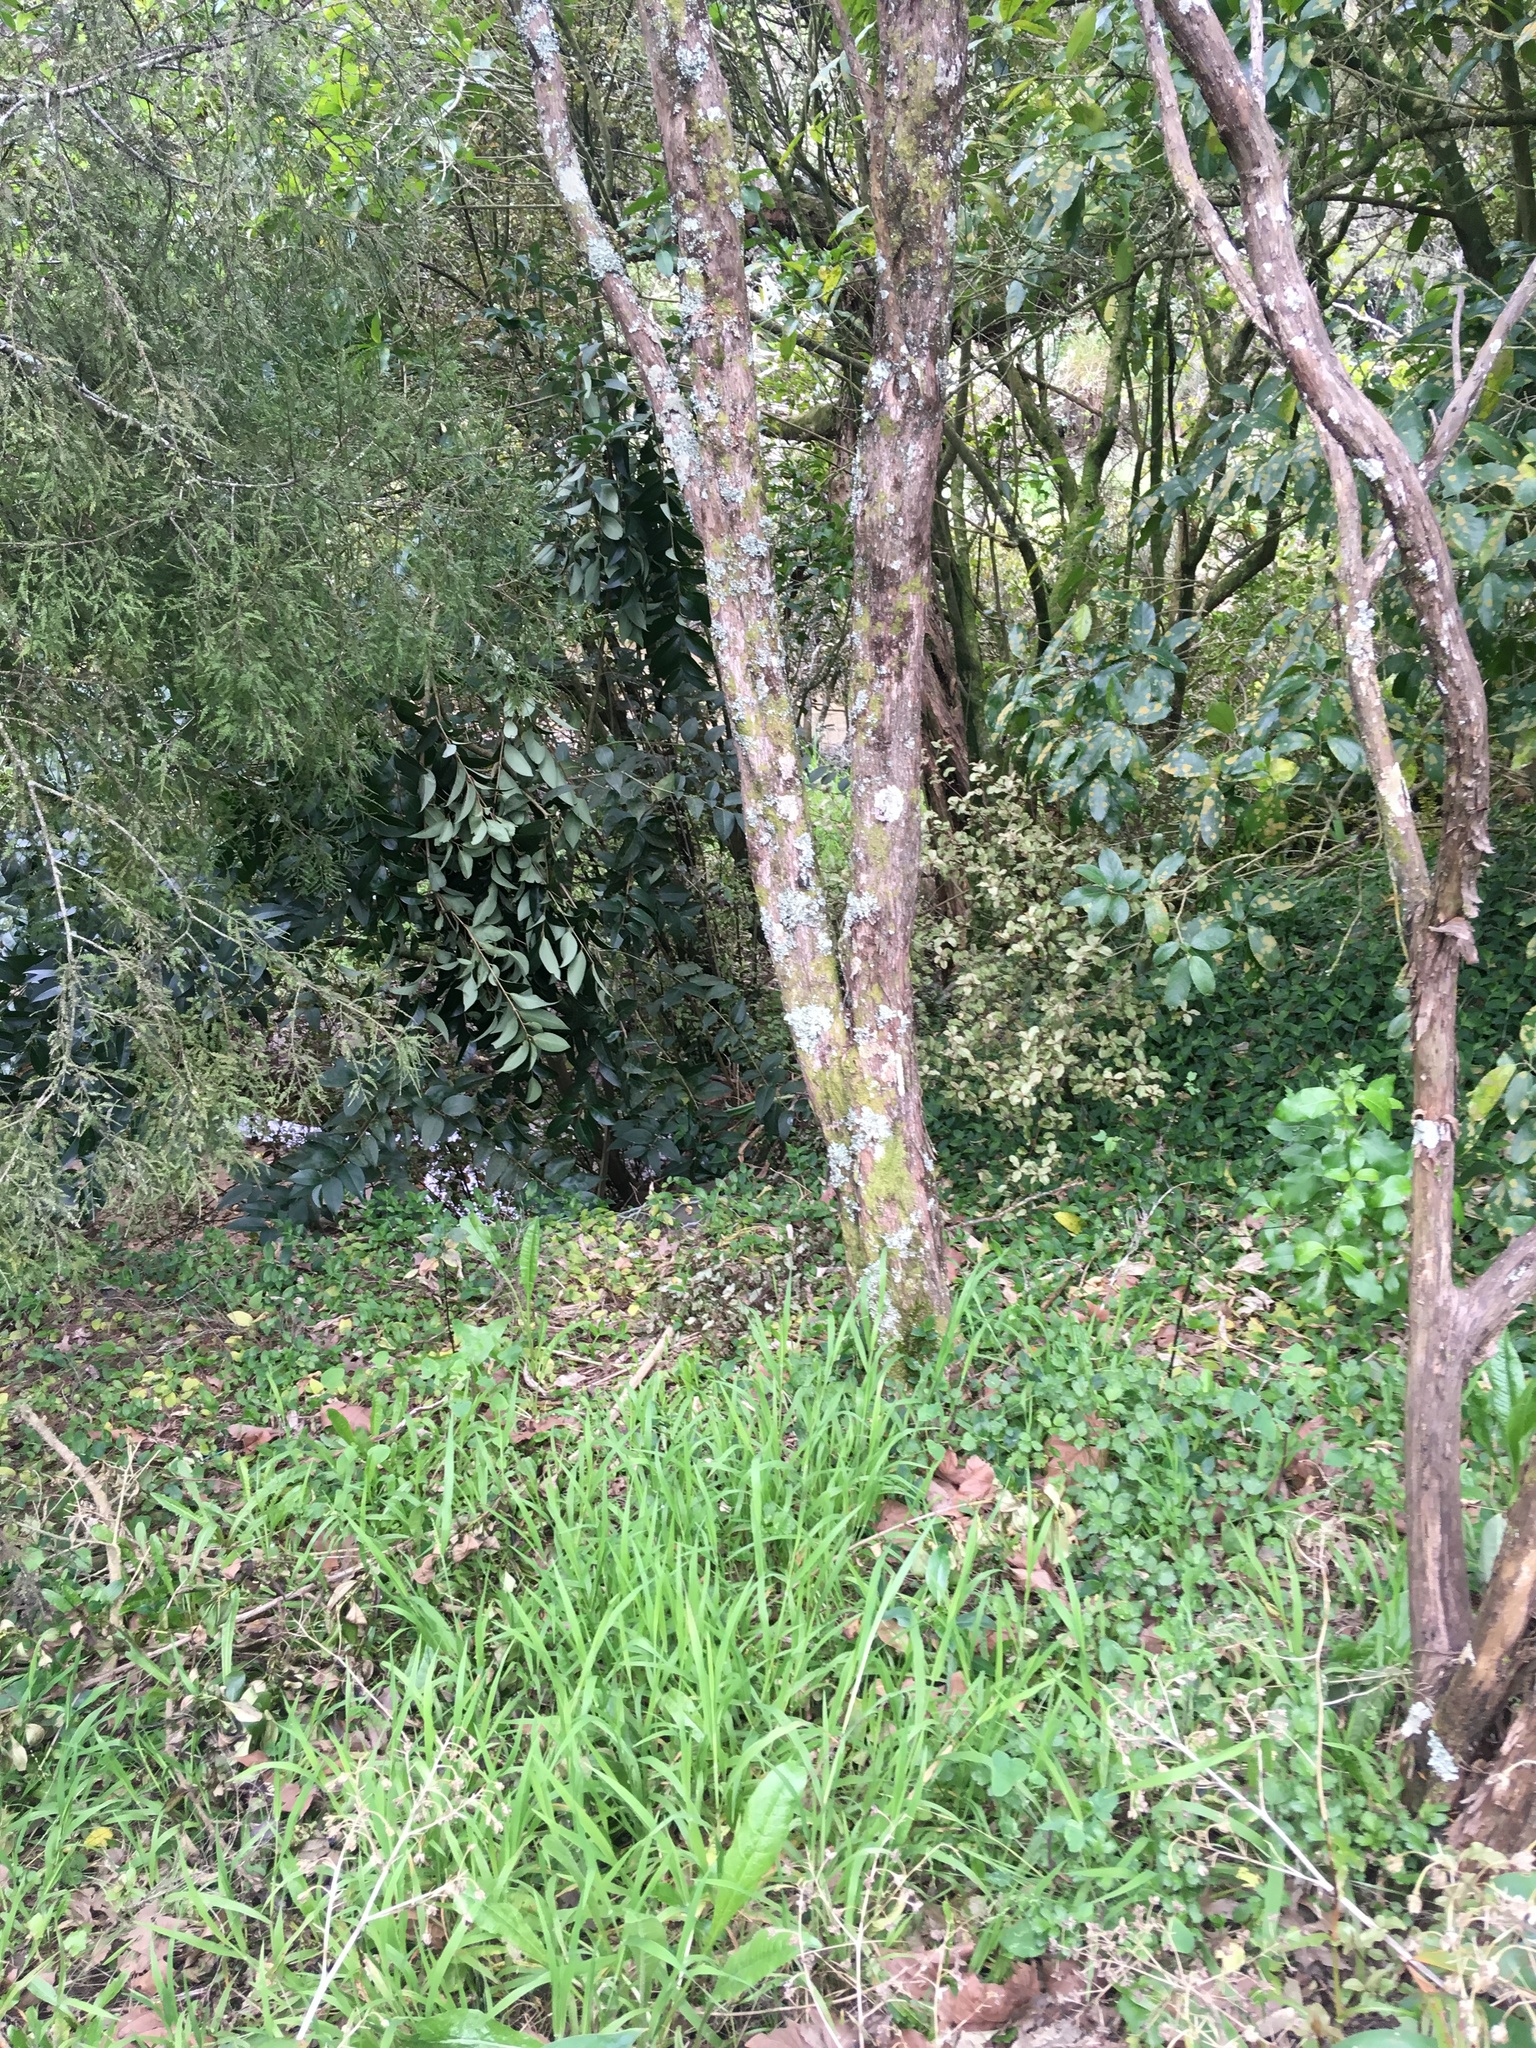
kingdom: Plantae
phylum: Tracheophyta
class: Magnoliopsida
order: Lamiales
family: Oleaceae
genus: Ligustrum
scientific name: Ligustrum lucidum
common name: Glossy privet
